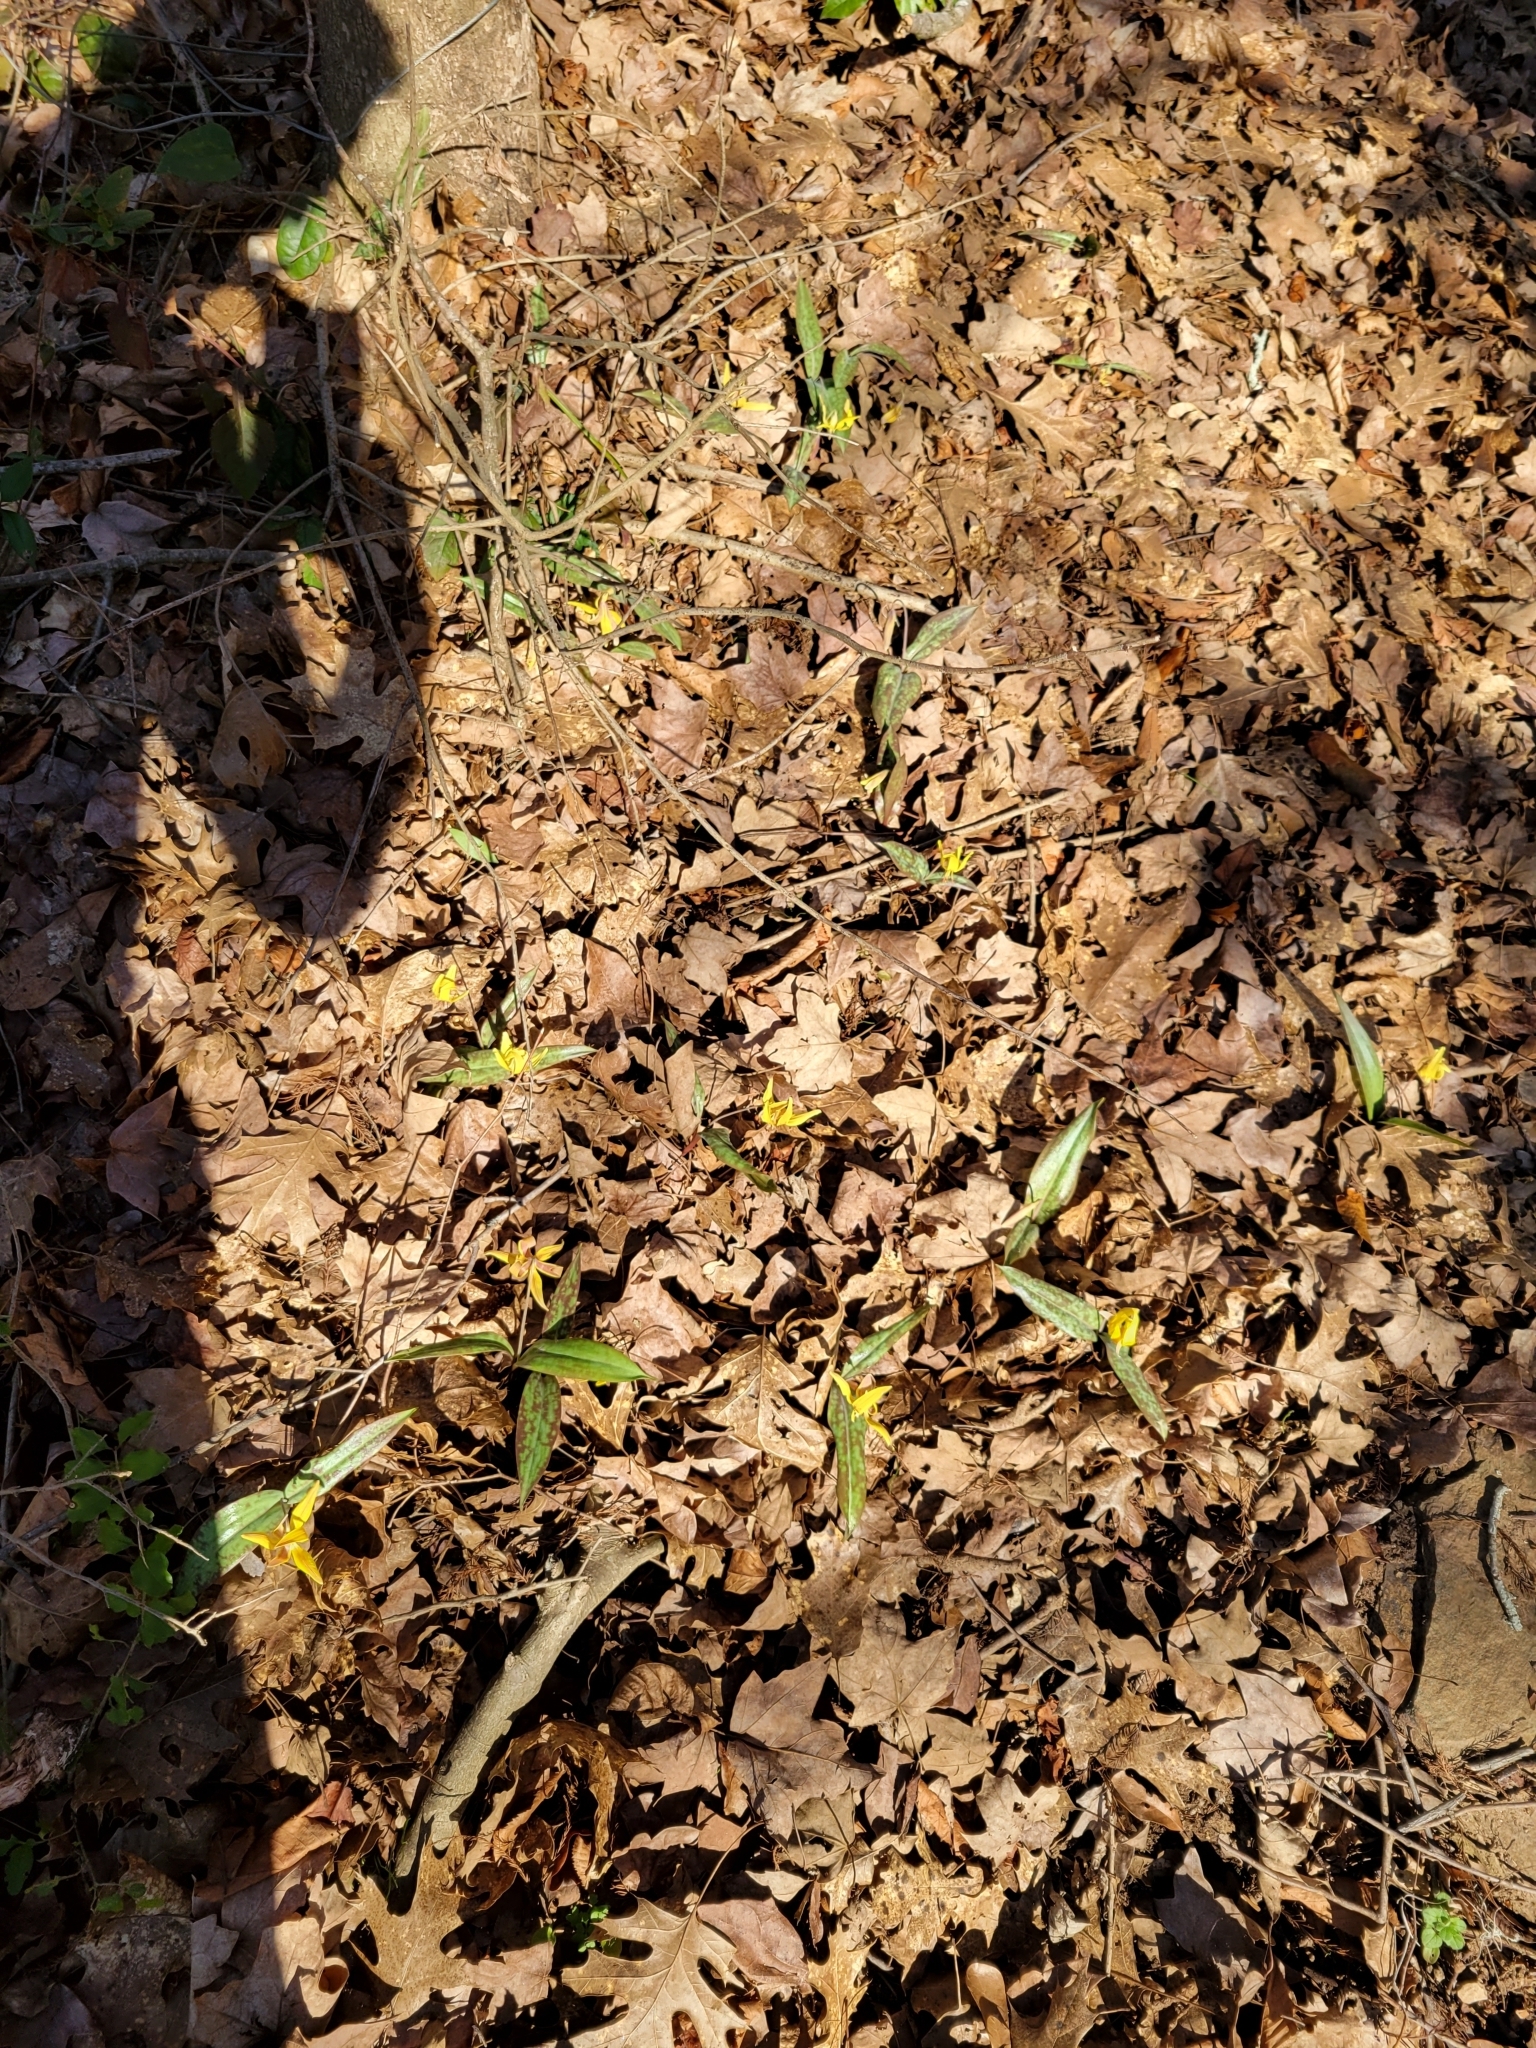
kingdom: Plantae
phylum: Tracheophyta
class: Liliopsida
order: Liliales
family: Liliaceae
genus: Erythronium
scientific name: Erythronium umbilicatum
